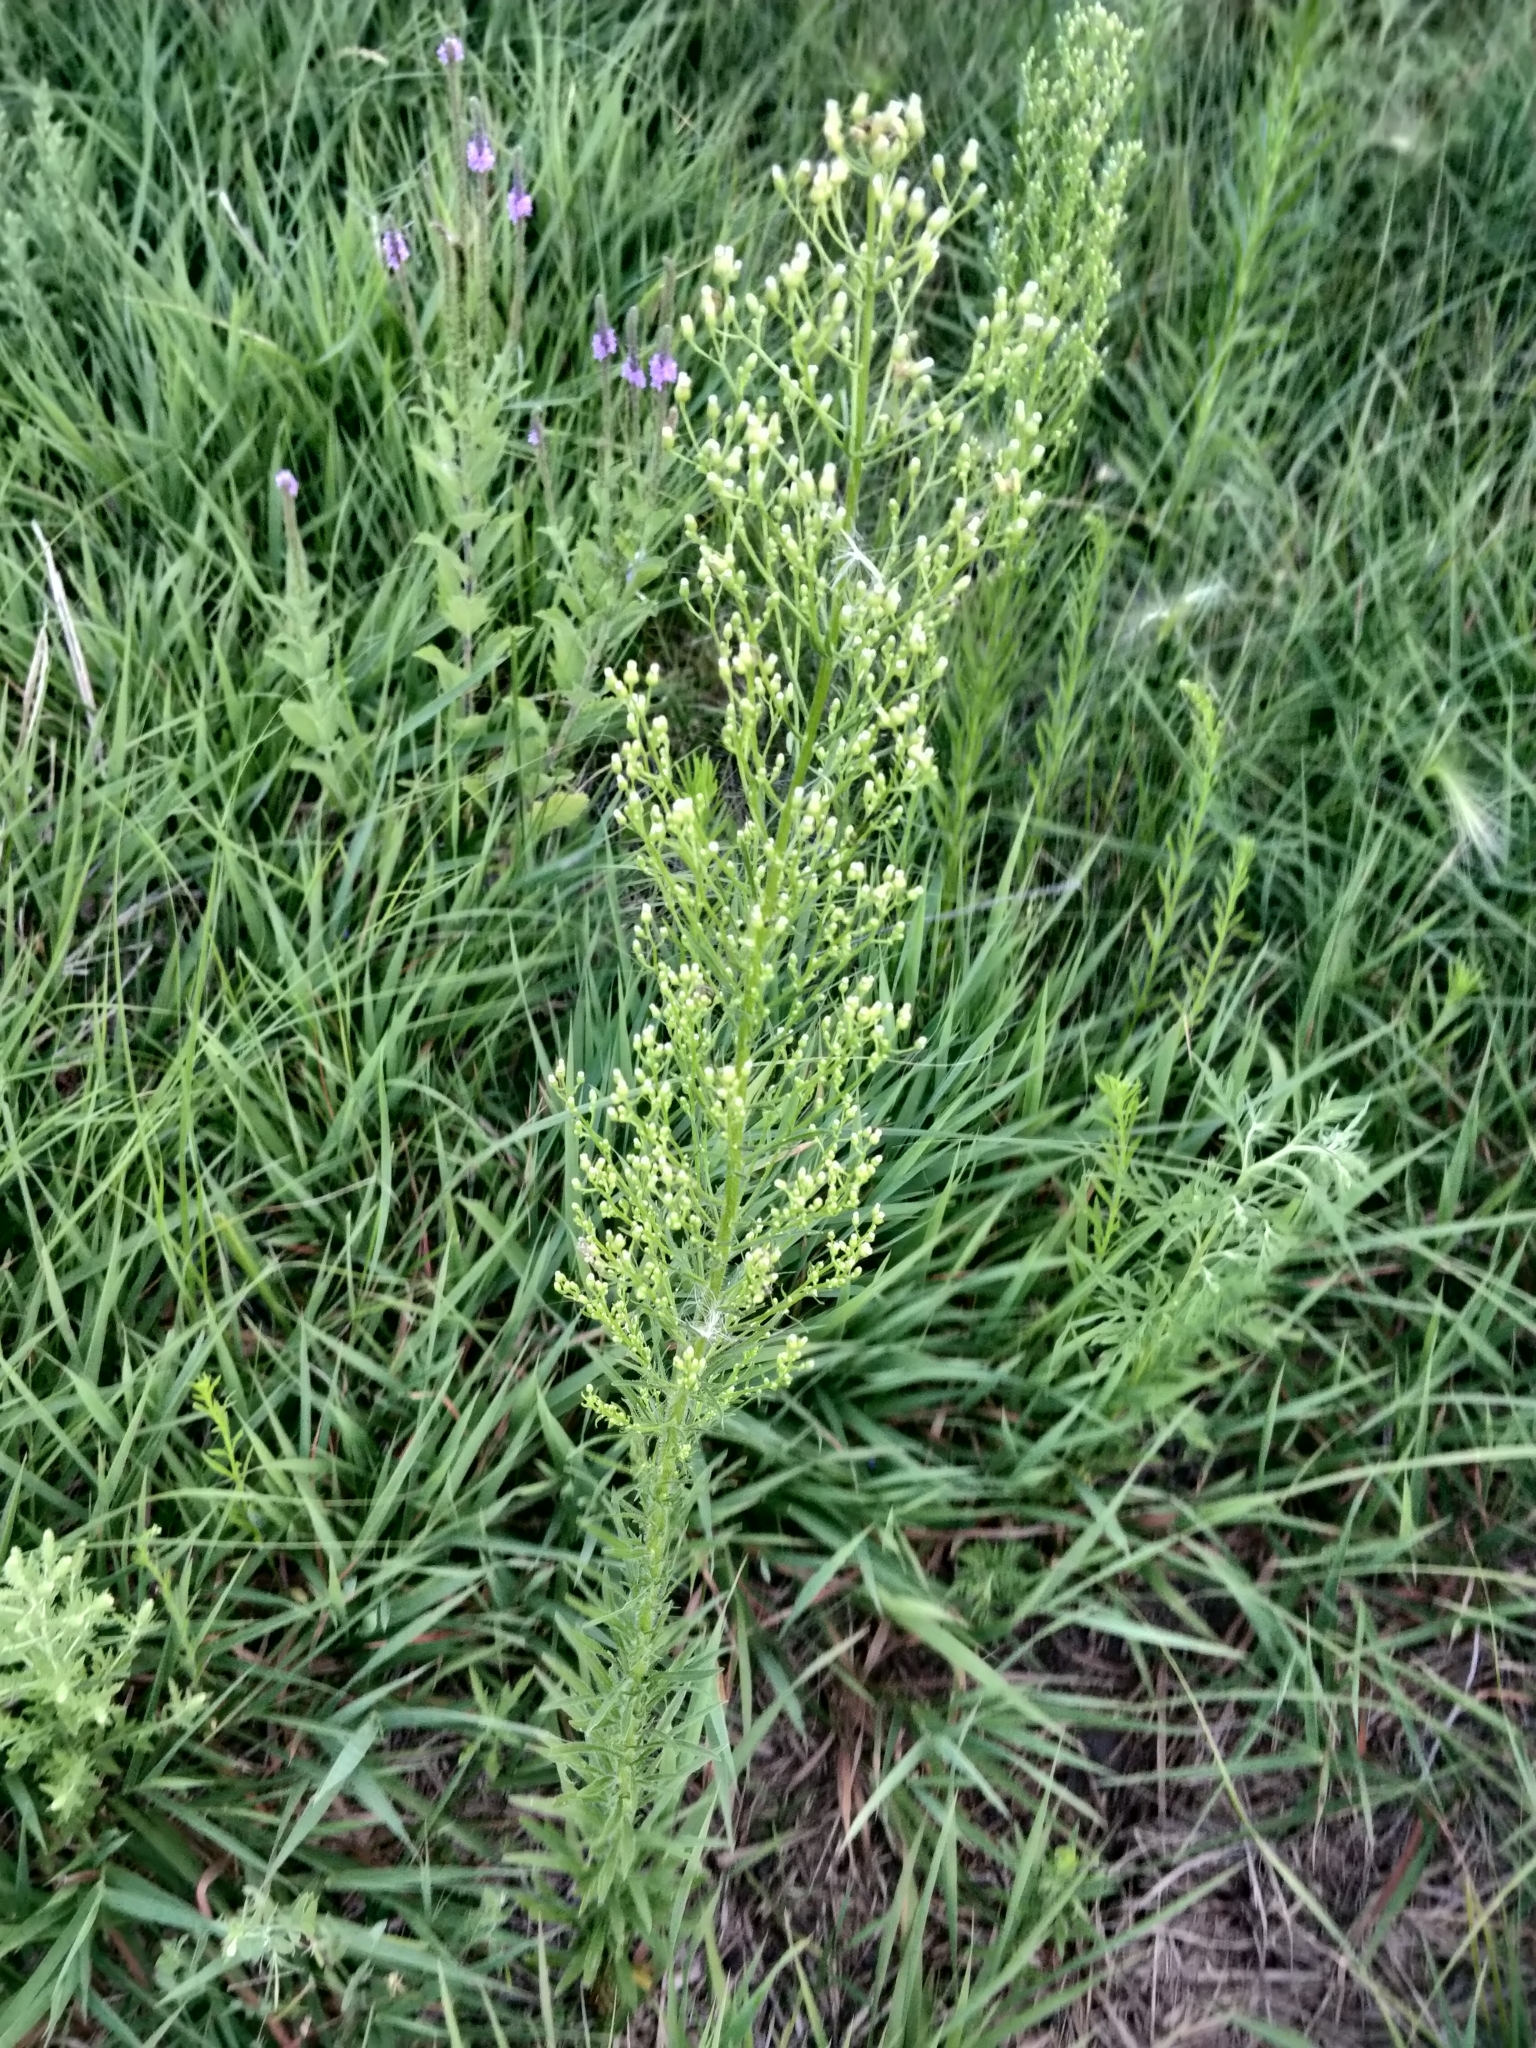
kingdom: Plantae
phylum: Tracheophyta
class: Magnoliopsida
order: Asterales
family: Asteraceae
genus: Erigeron
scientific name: Erigeron canadensis
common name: Canadian fleabane
